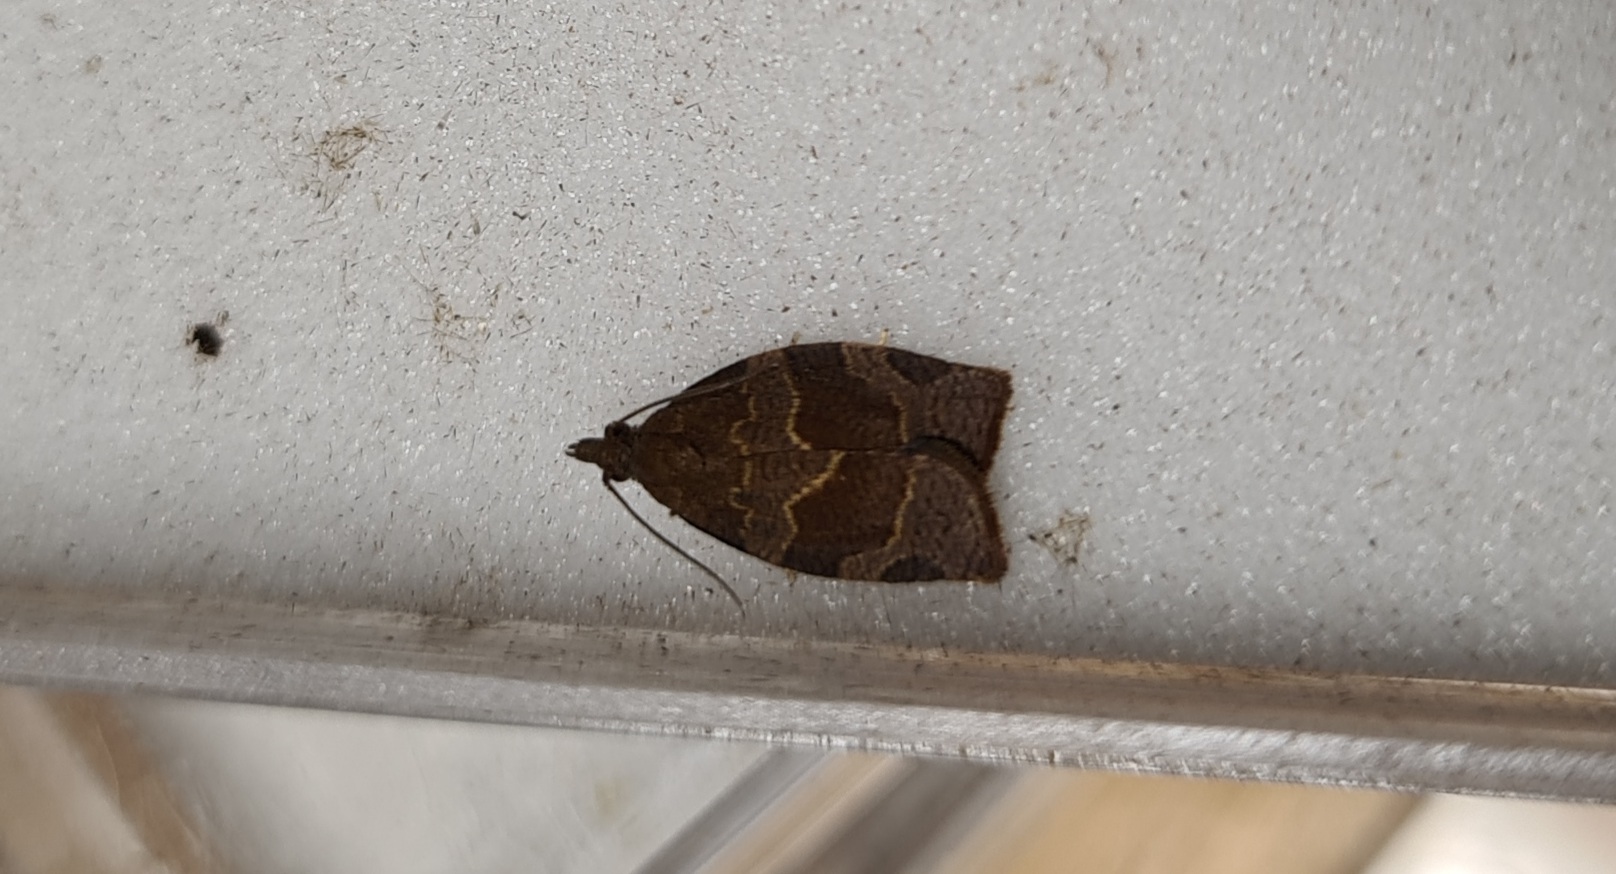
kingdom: Animalia
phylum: Arthropoda
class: Insecta
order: Lepidoptera
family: Tortricidae
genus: Pandemis
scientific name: Pandemis heparana
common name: Dark fruit-tree tortrix
